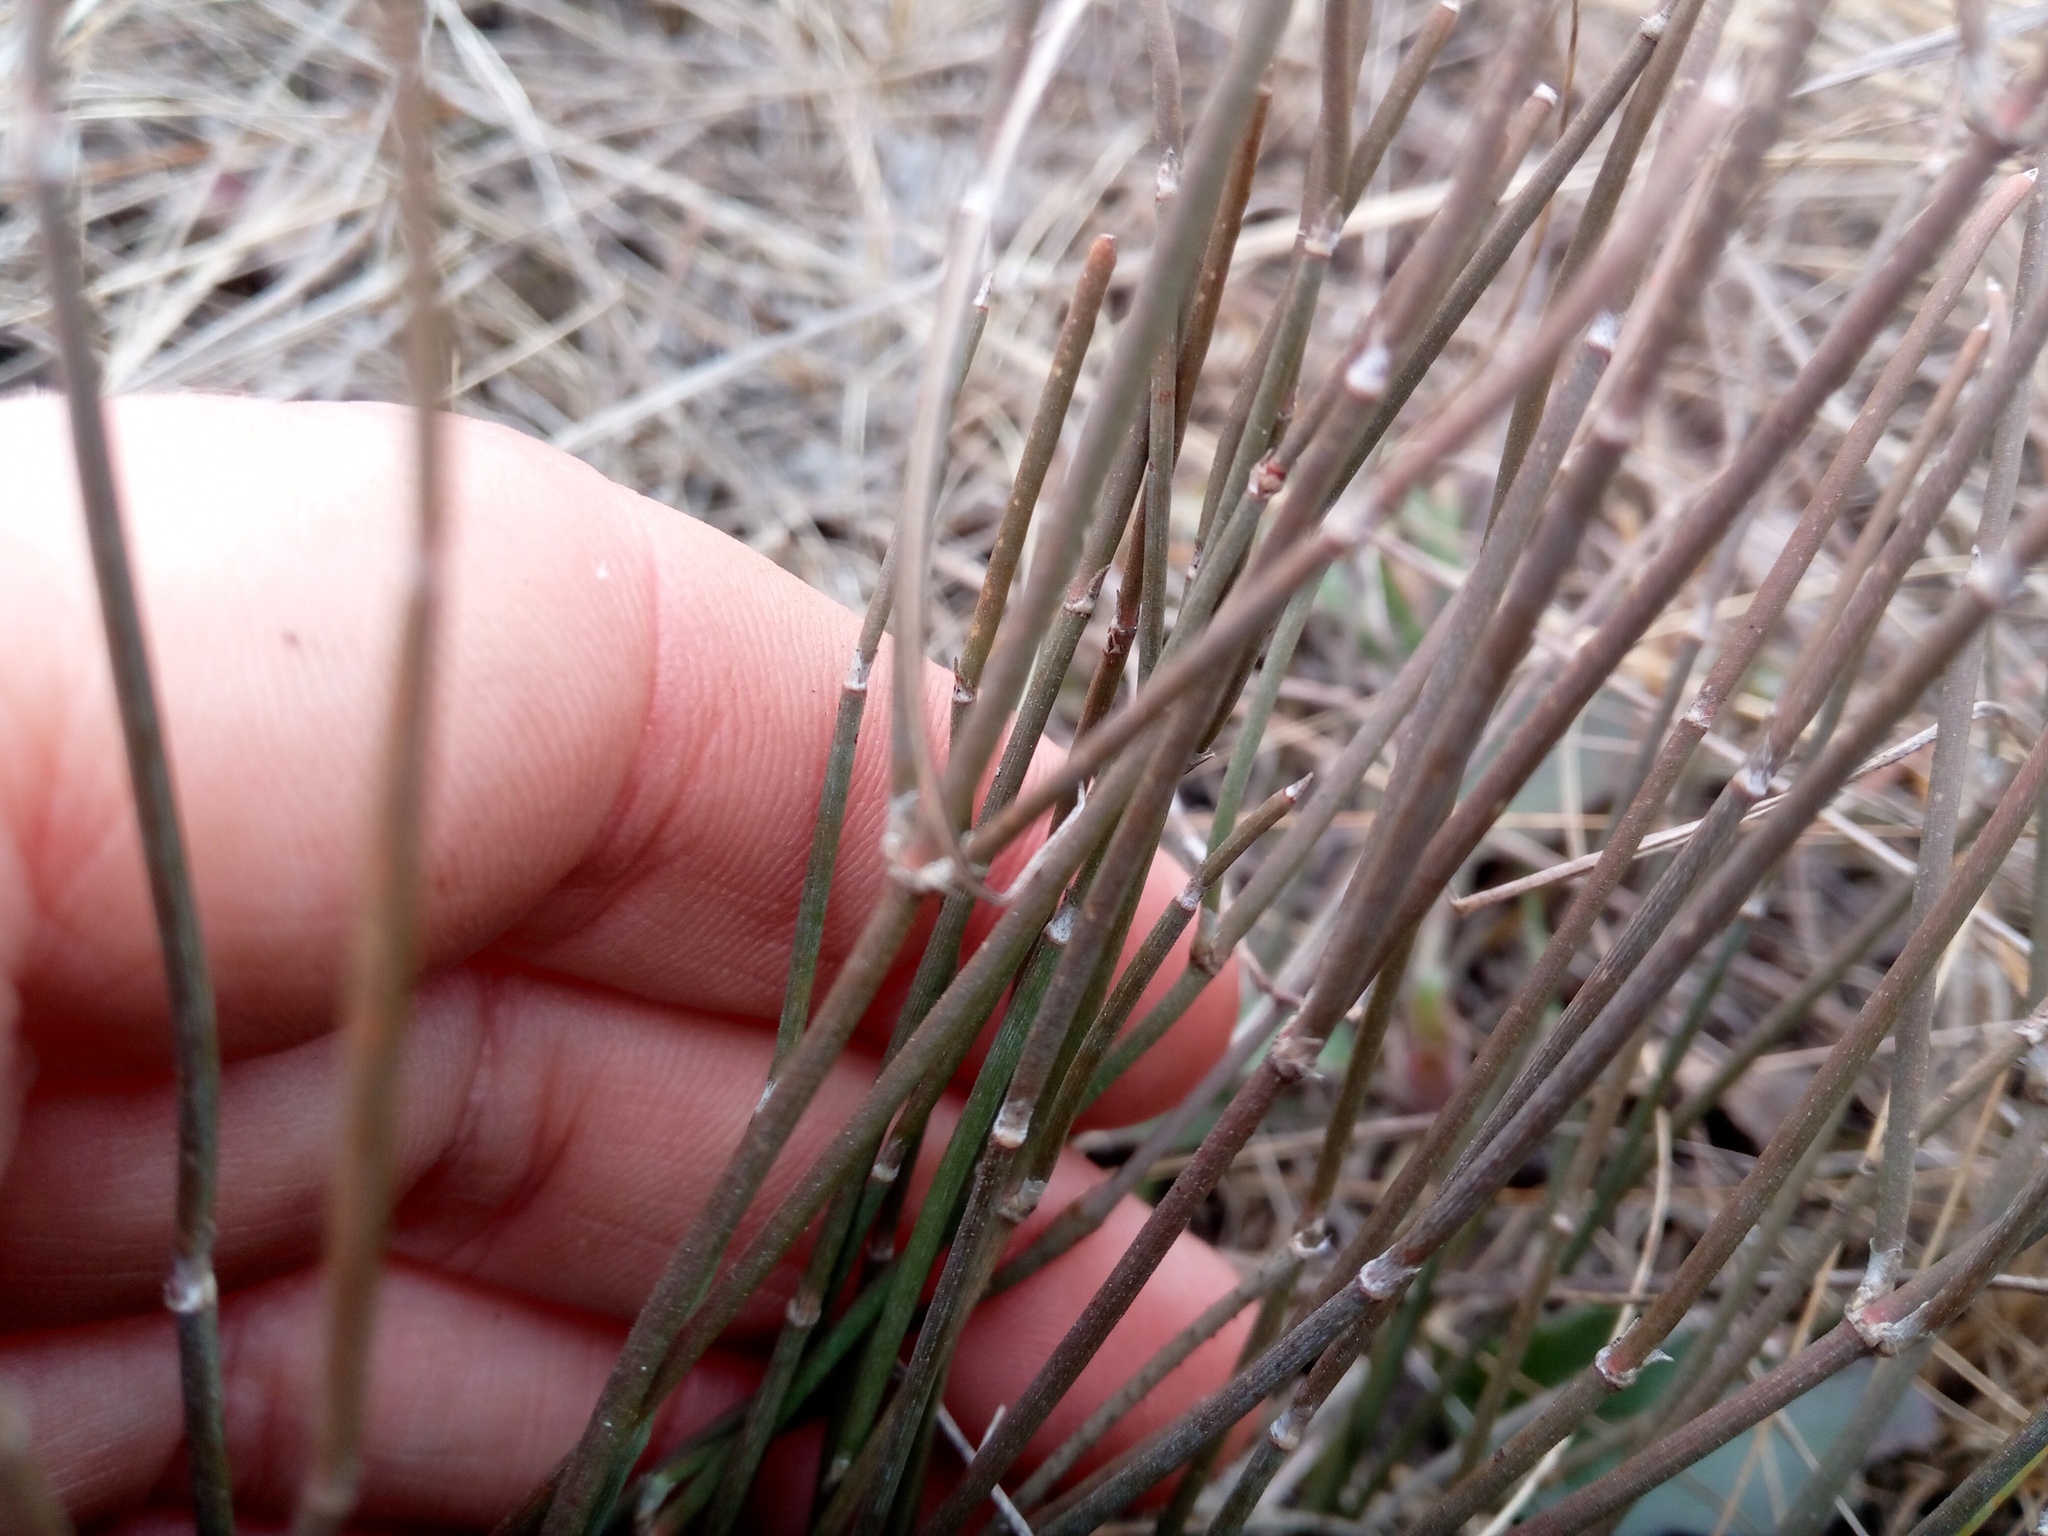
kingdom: Plantae
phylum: Tracheophyta
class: Gnetopsida
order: Ephedrales
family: Ephedraceae
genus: Ephedra
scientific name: Ephedra distachya
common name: Sea grape
